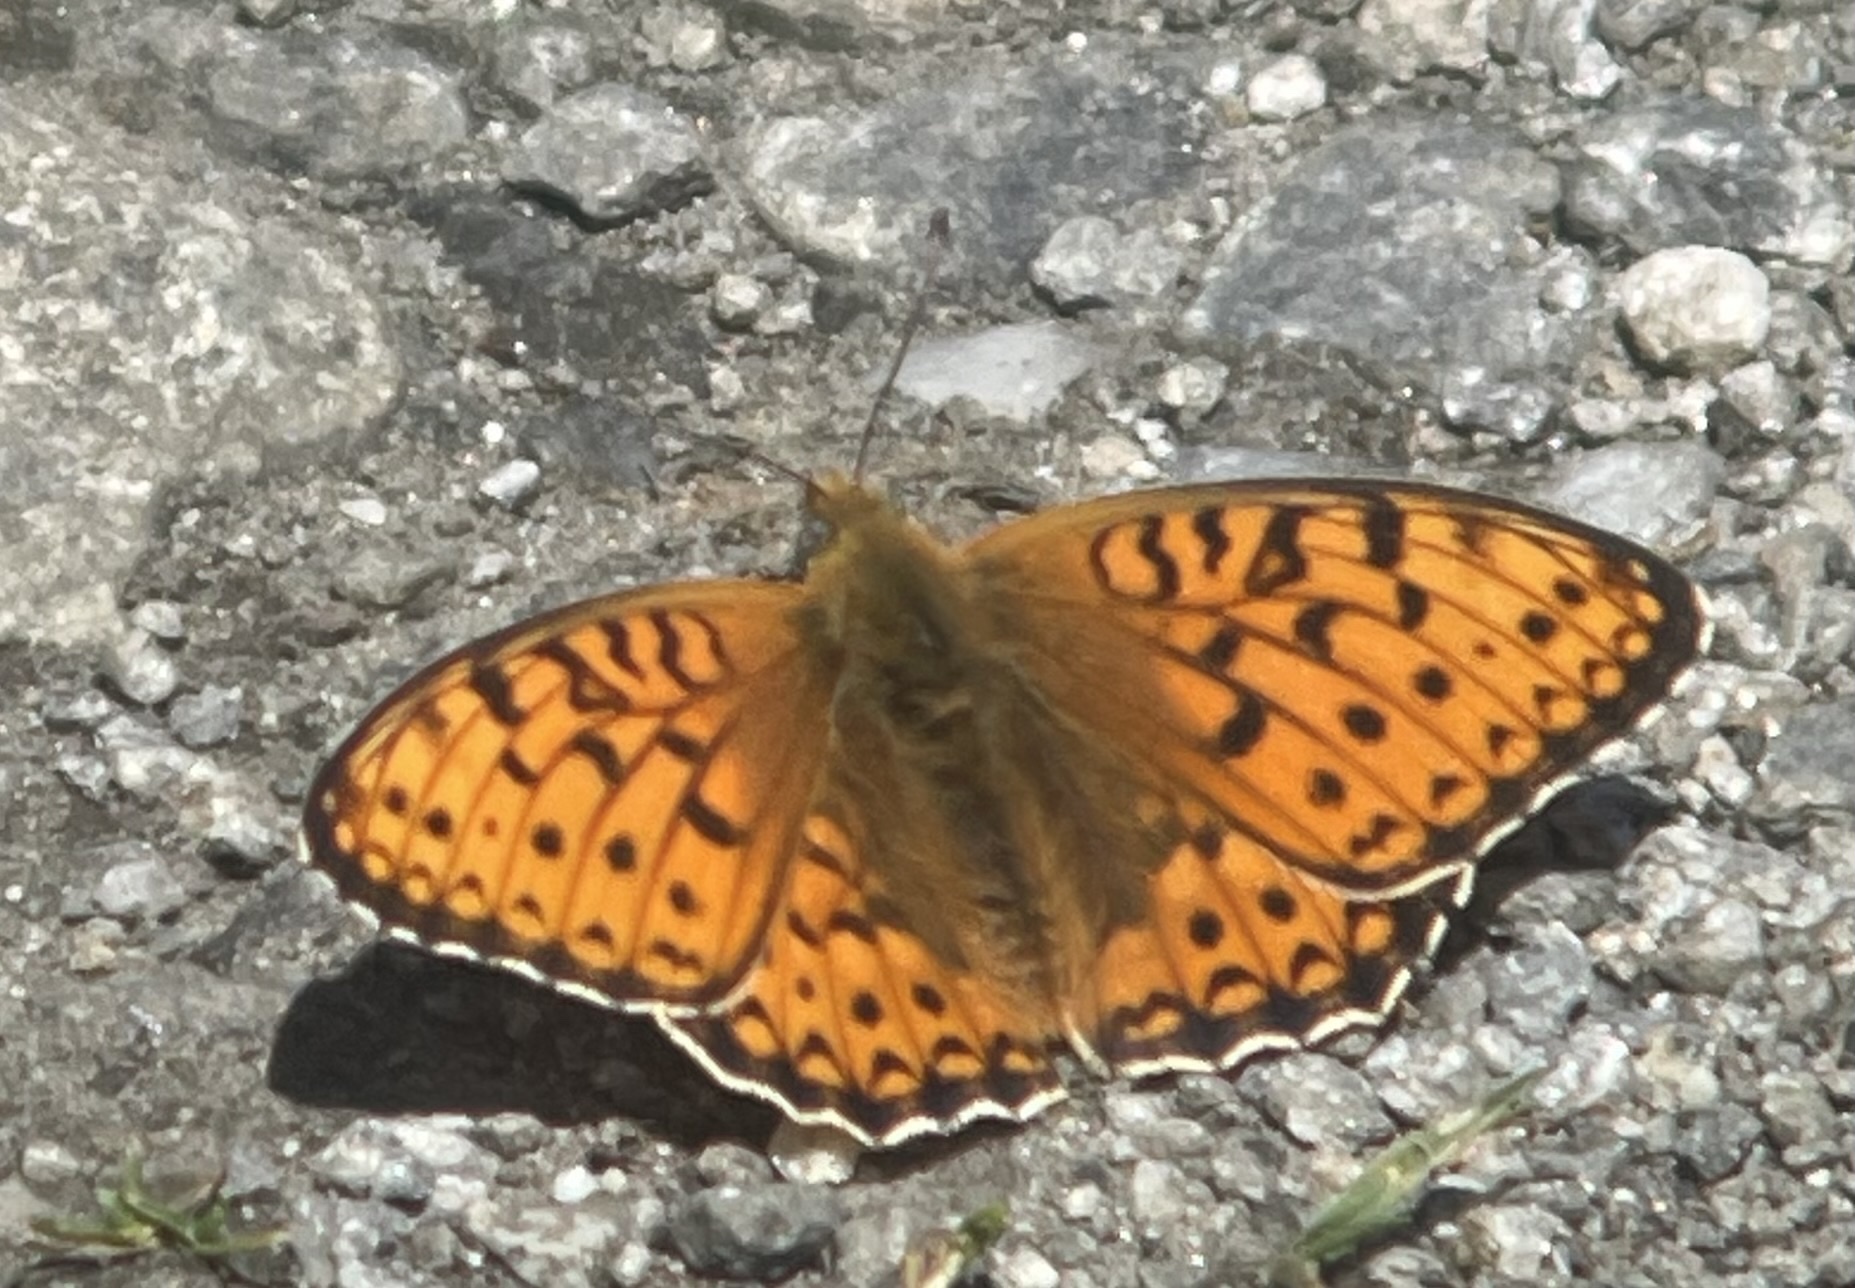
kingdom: Animalia
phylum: Arthropoda
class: Insecta
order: Lepidoptera
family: Nymphalidae
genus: Fabriciana
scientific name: Fabriciana niobe
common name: Niobe fritillary
